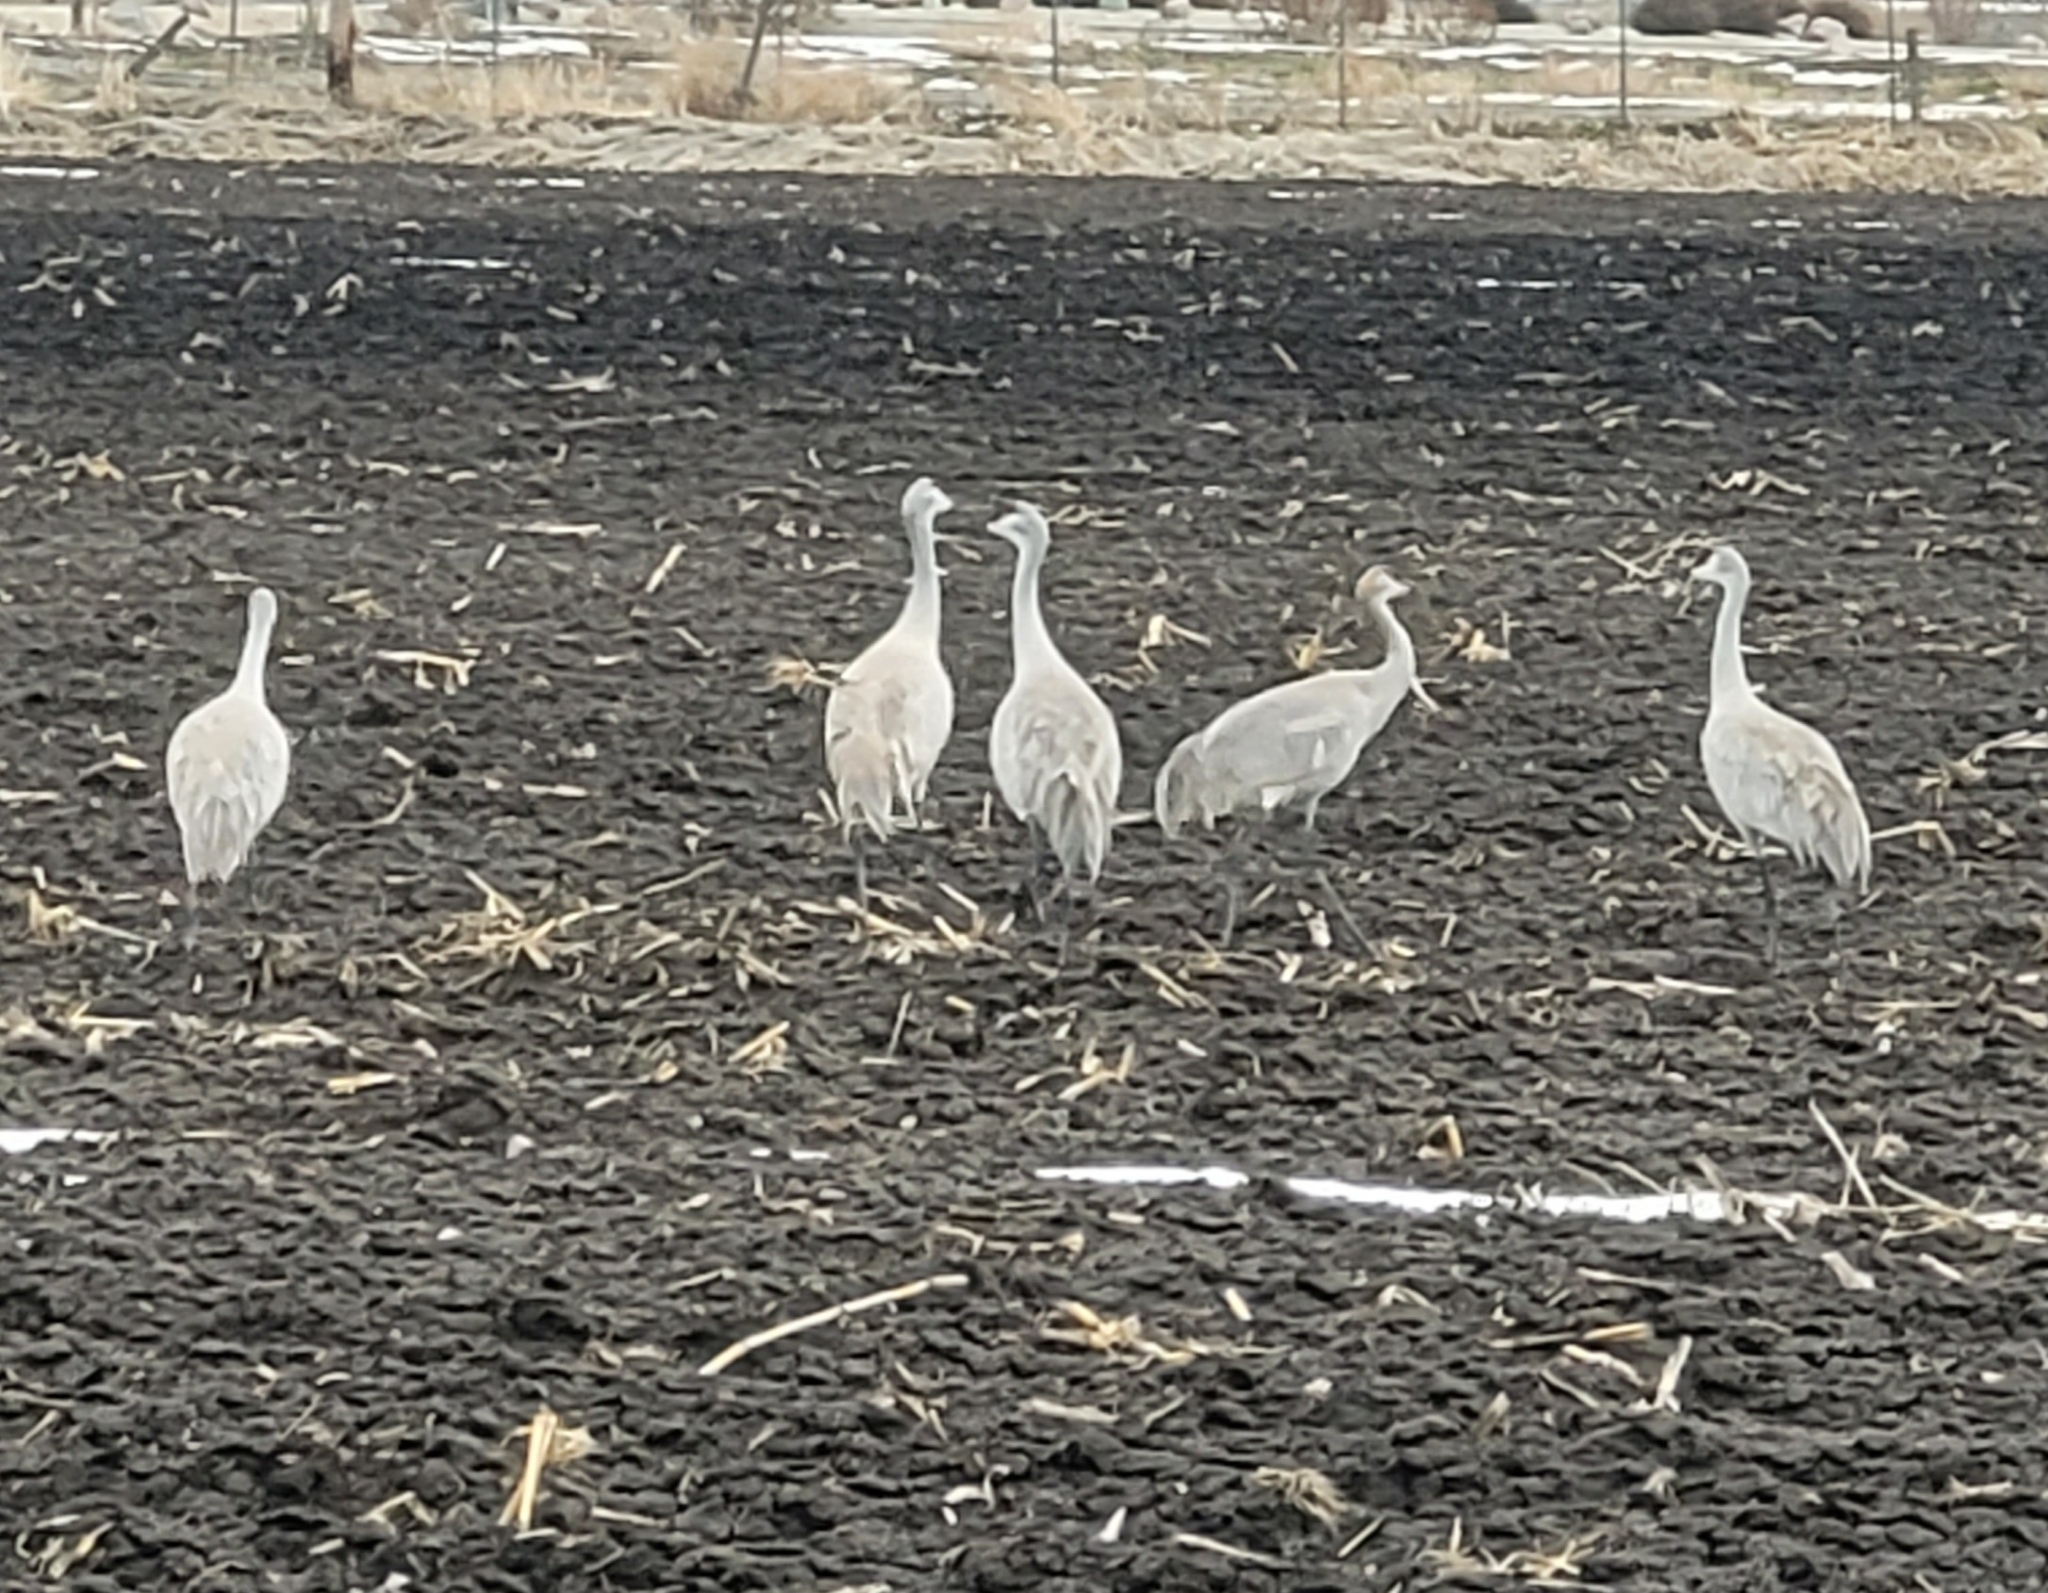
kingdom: Animalia
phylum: Chordata
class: Aves
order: Gruiformes
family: Gruidae
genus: Grus
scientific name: Grus canadensis
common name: Sandhill crane
